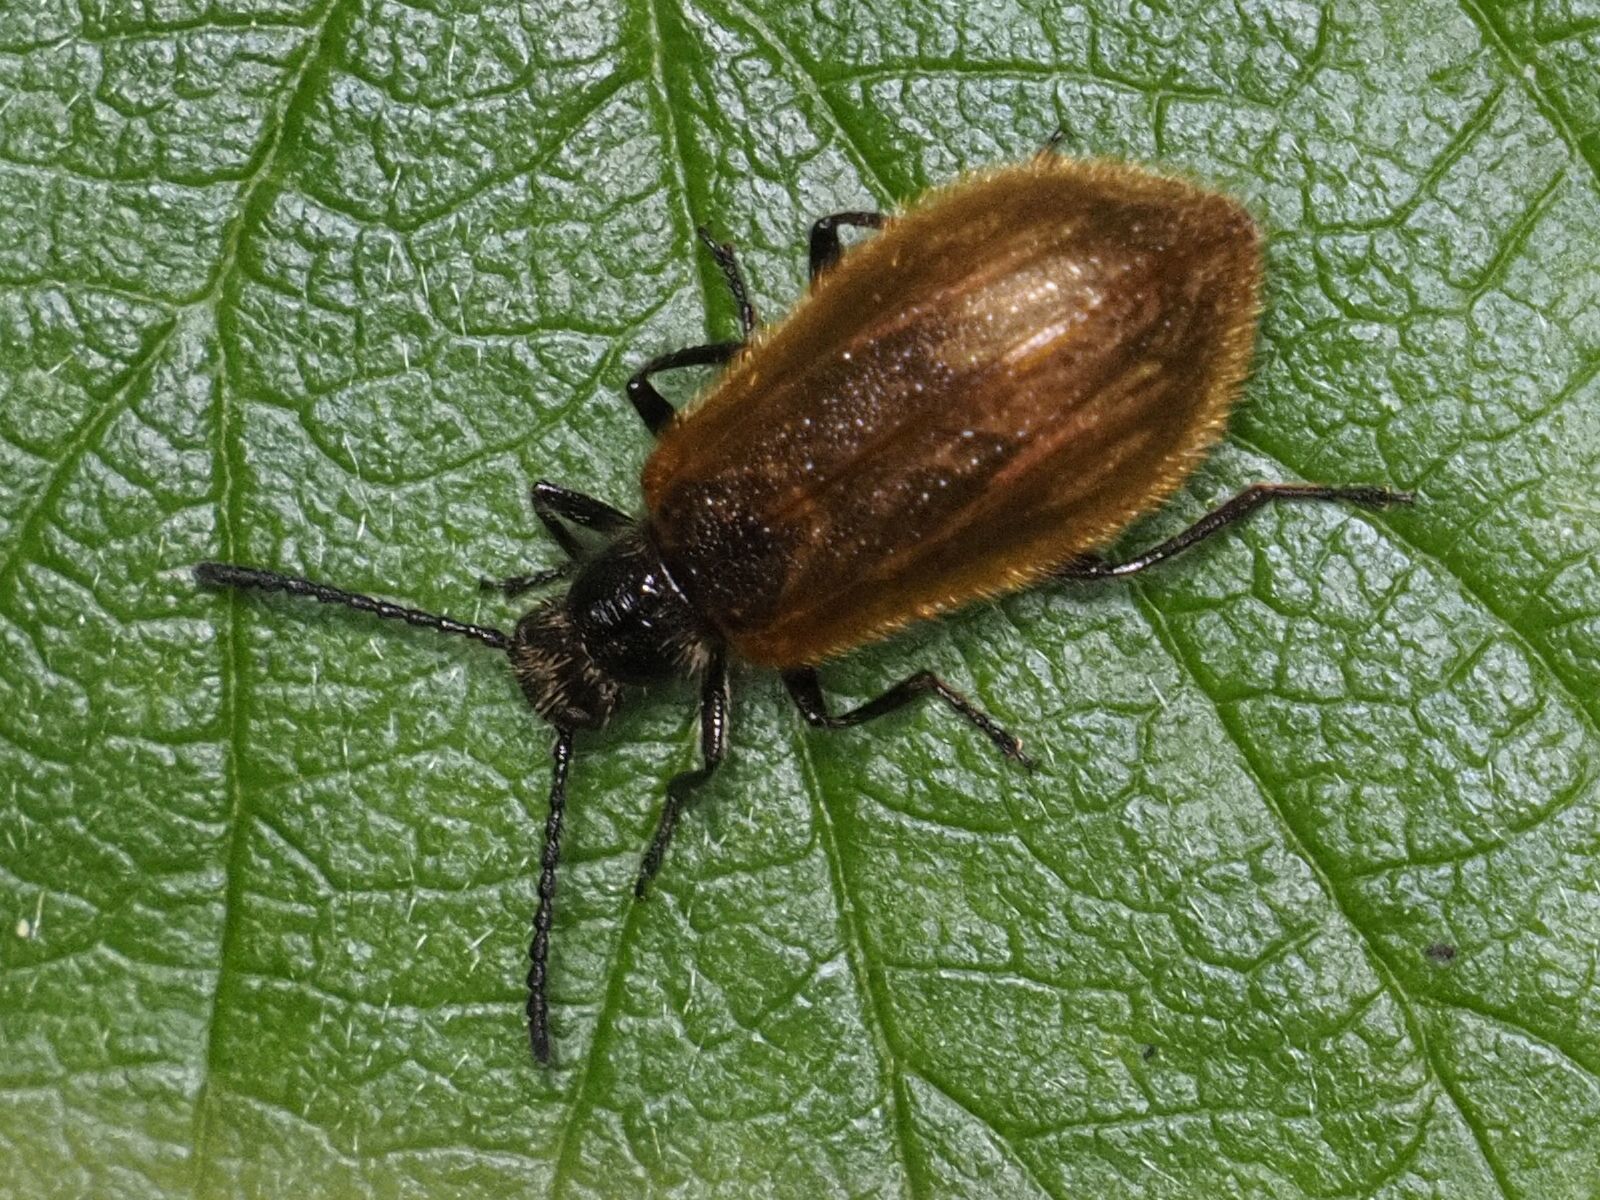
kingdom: Animalia
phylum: Arthropoda
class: Insecta
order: Coleoptera
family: Tenebrionidae
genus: Lagria
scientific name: Lagria hirta
